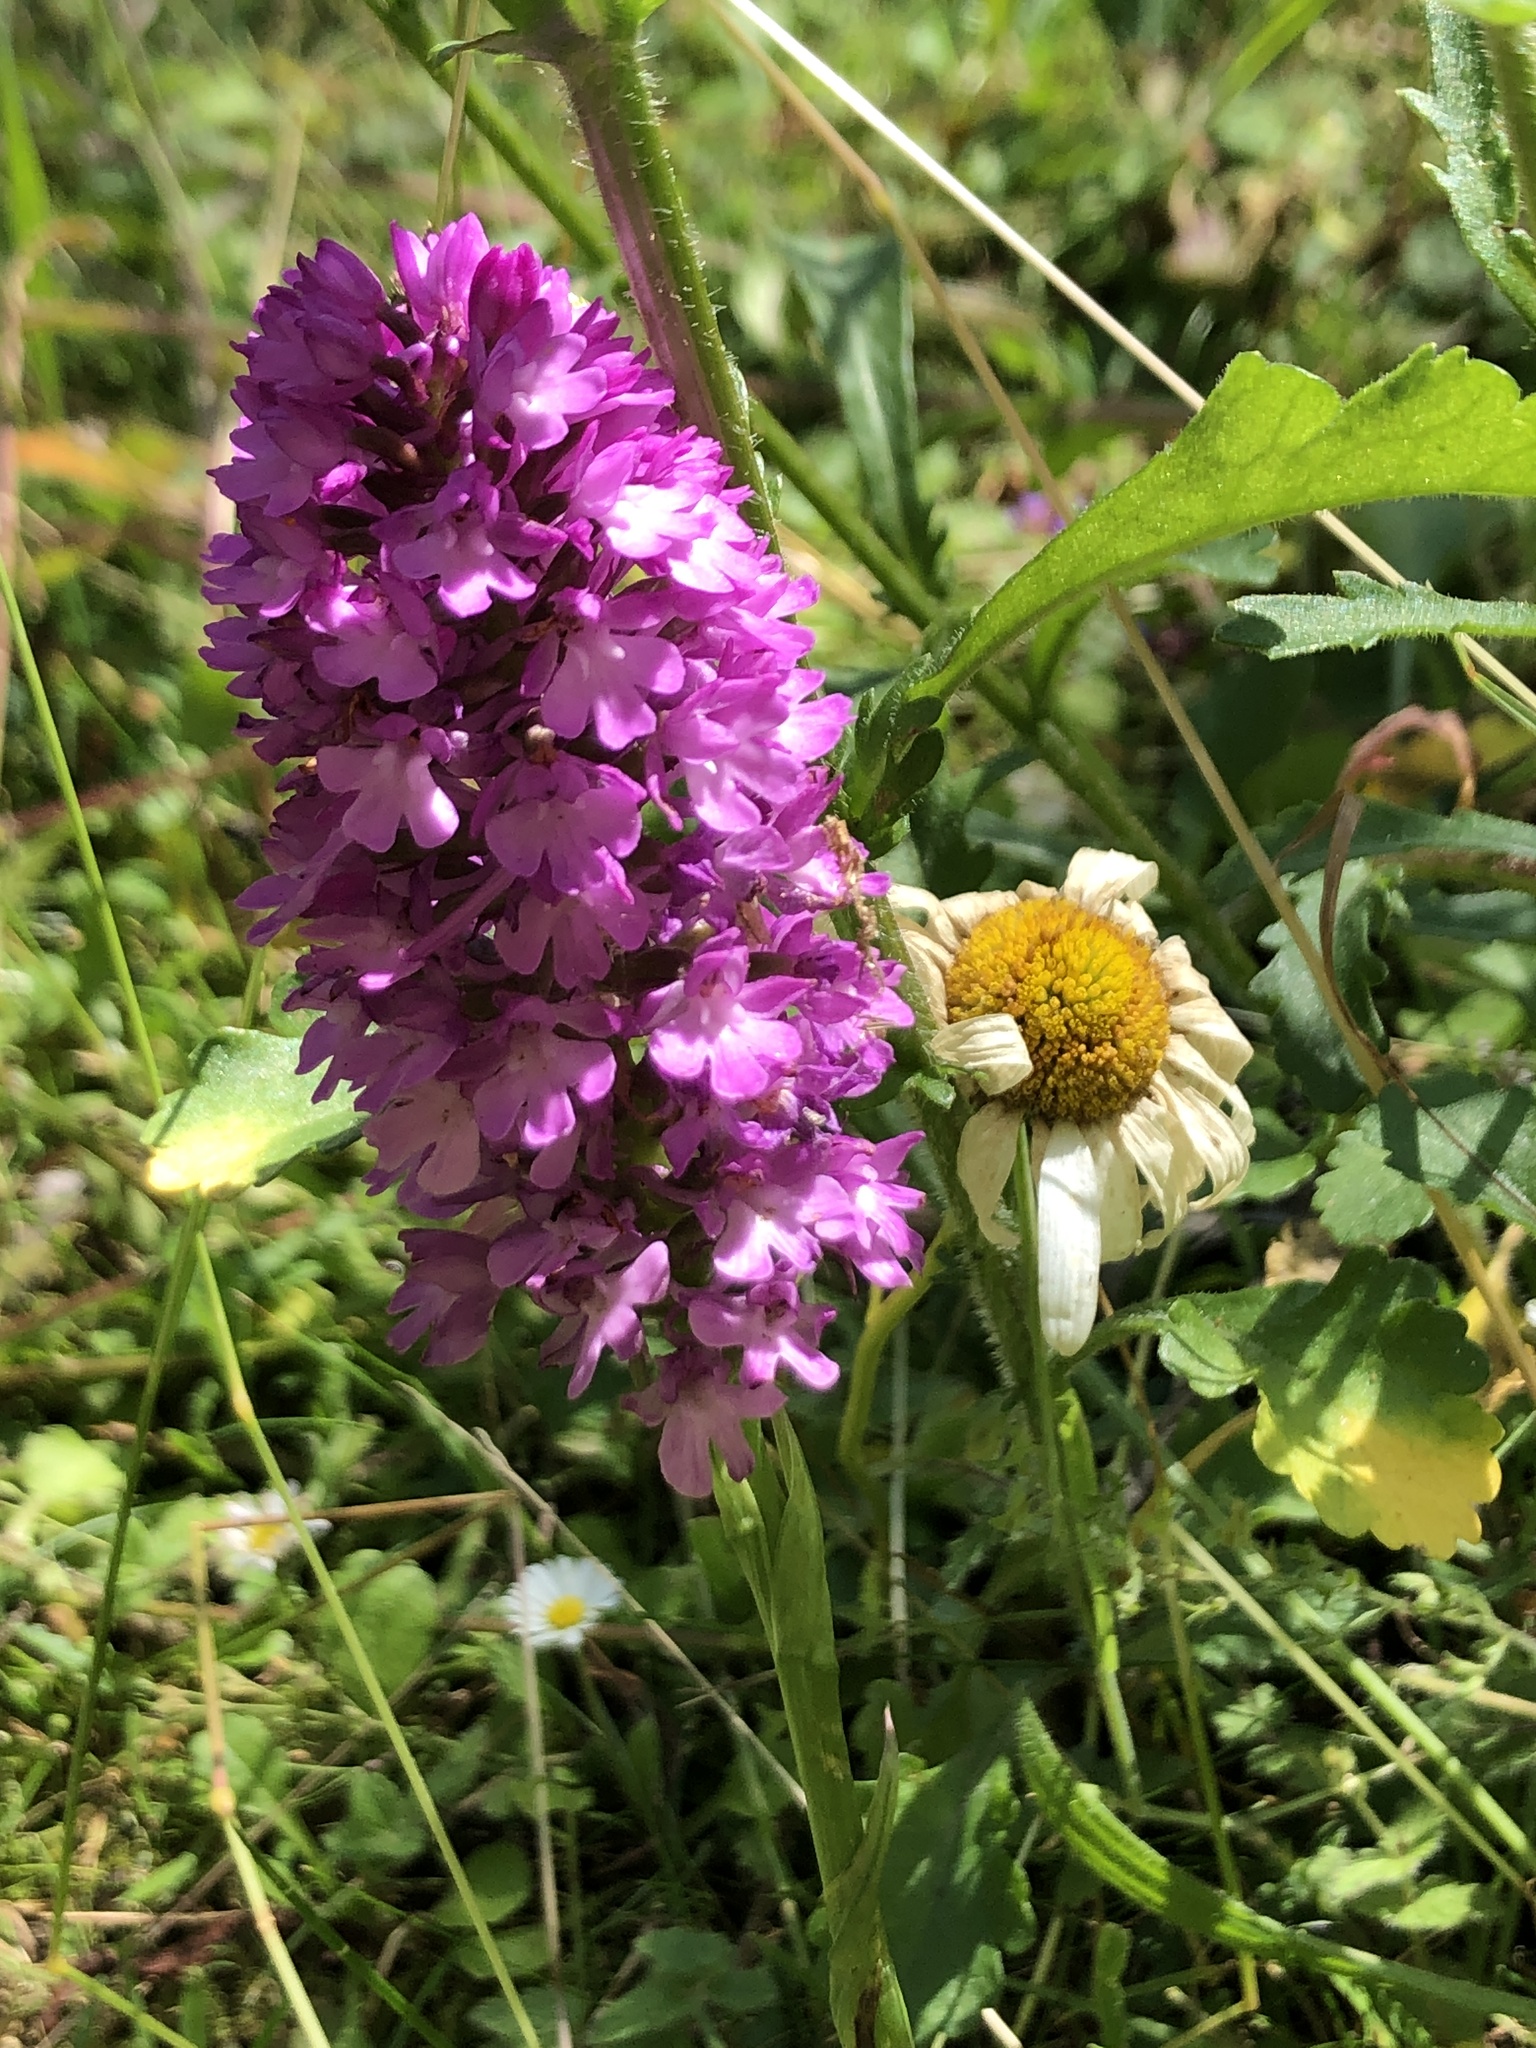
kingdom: Plantae
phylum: Tracheophyta
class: Liliopsida
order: Asparagales
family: Orchidaceae
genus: Anacamptis
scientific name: Anacamptis pyramidalis
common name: Pyramidal orchid
